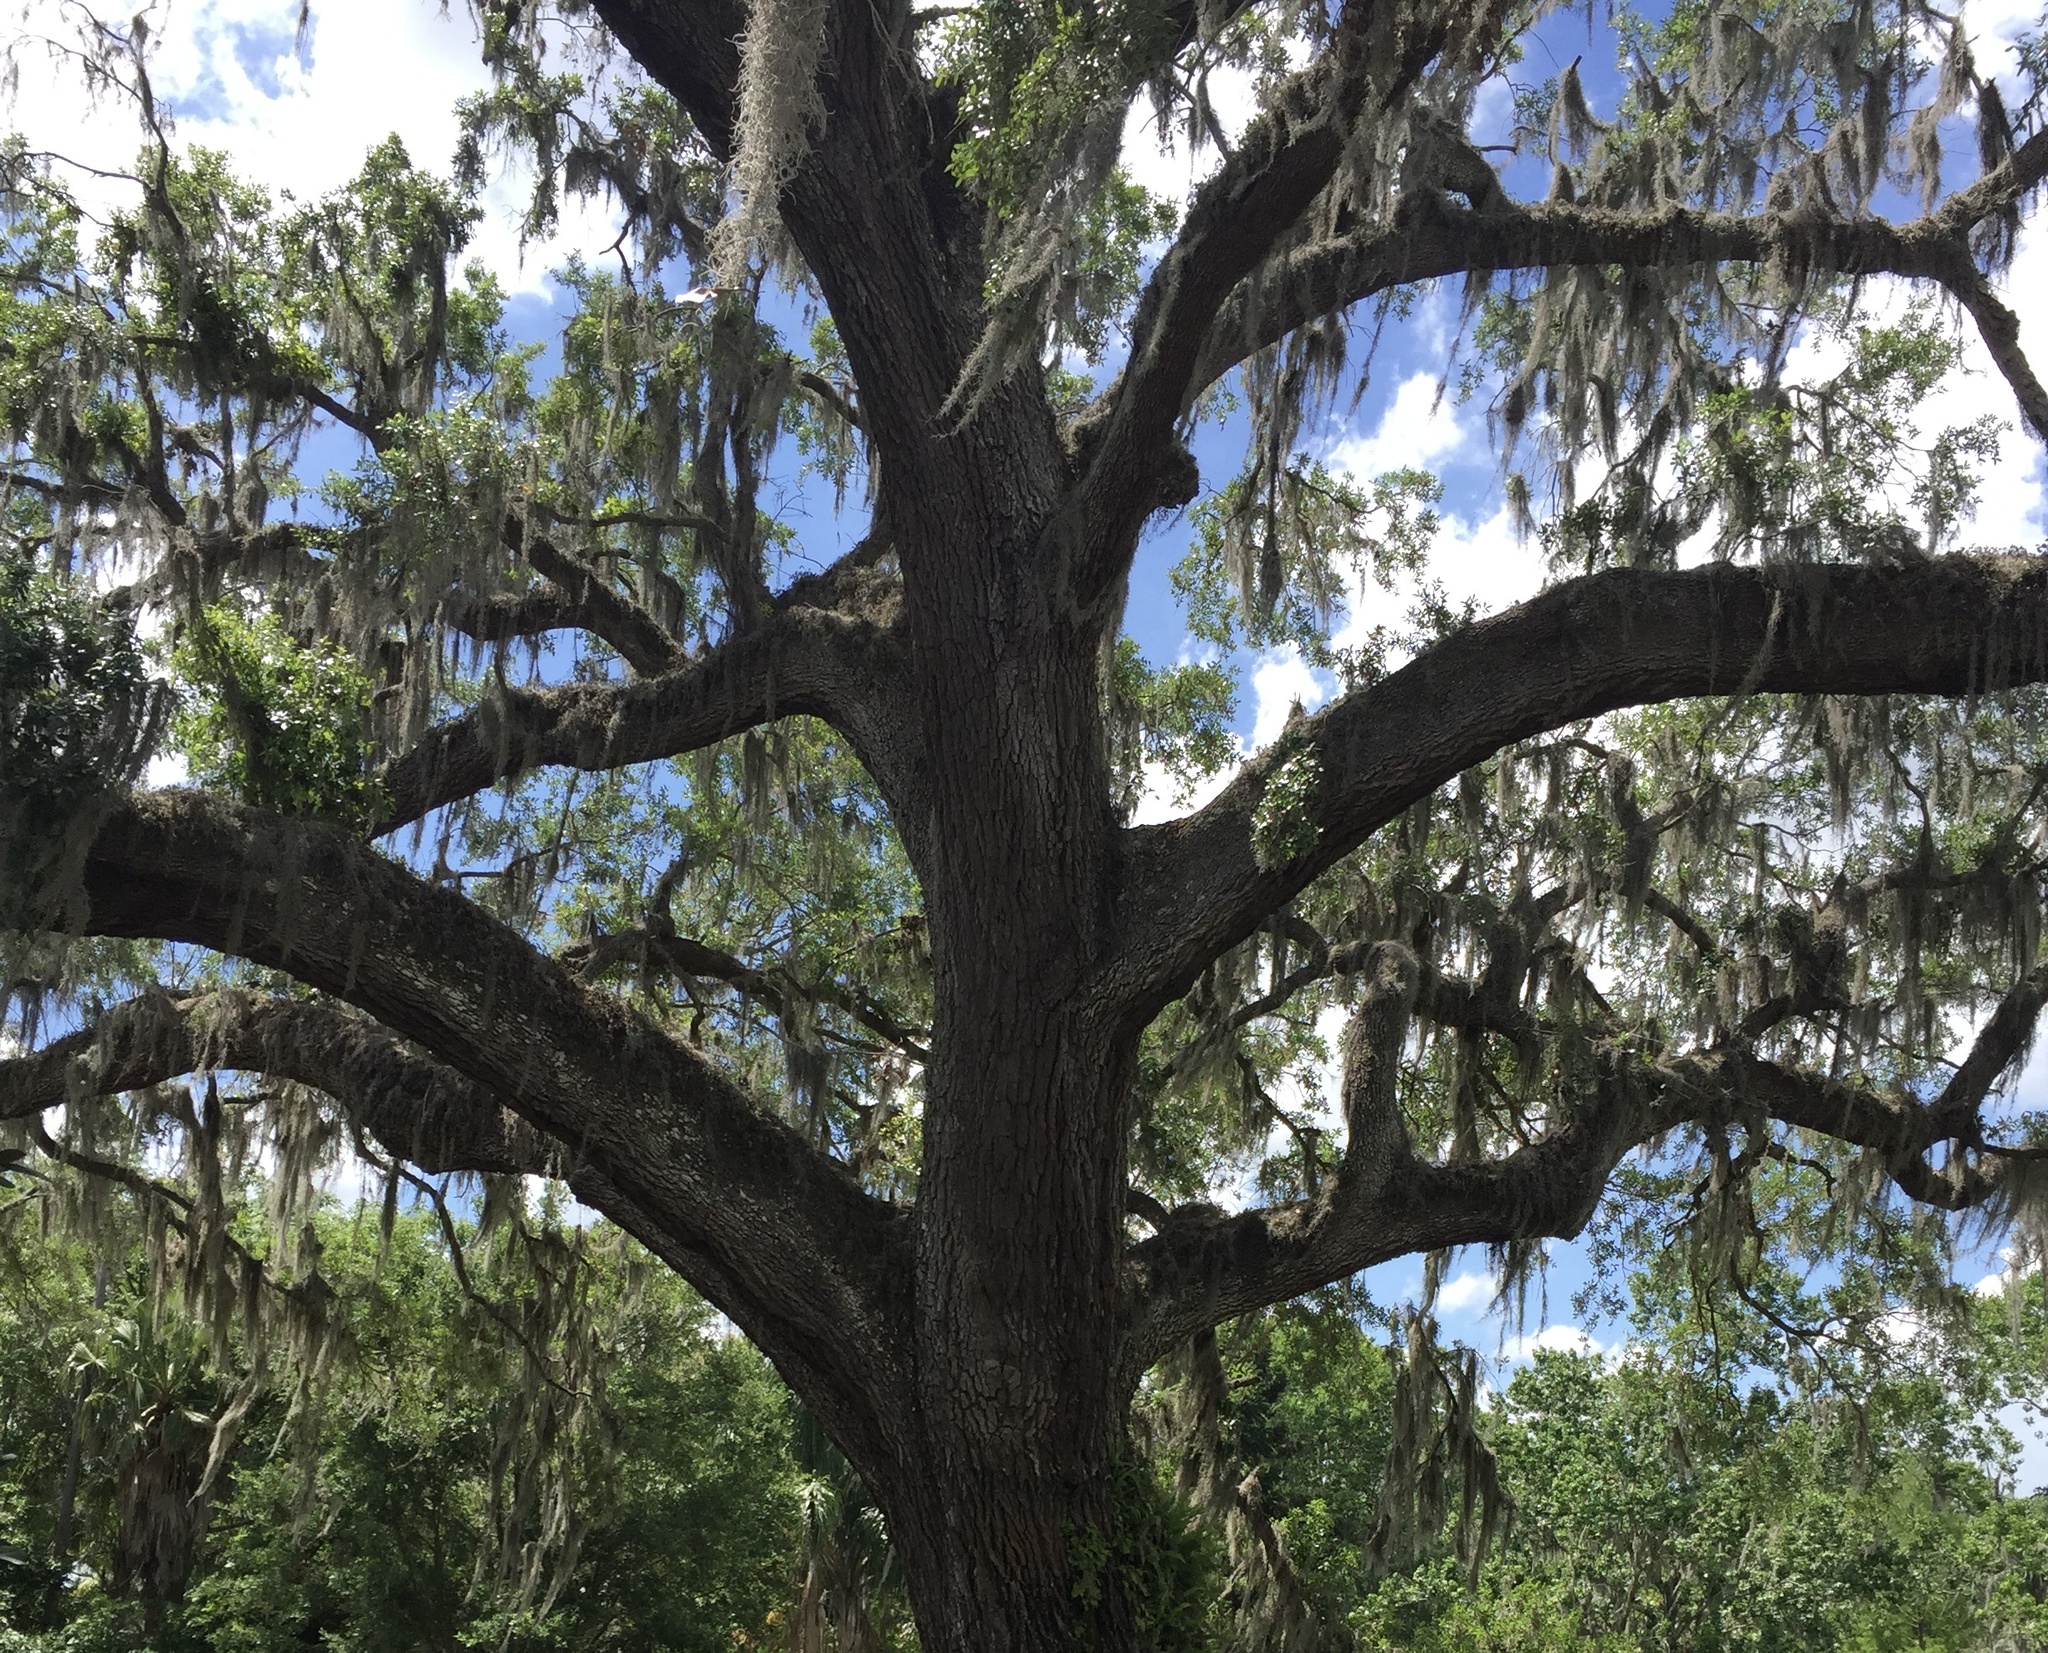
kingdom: Plantae
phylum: Tracheophyta
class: Liliopsida
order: Poales
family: Bromeliaceae
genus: Tillandsia
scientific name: Tillandsia usneoides
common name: Spanish moss
